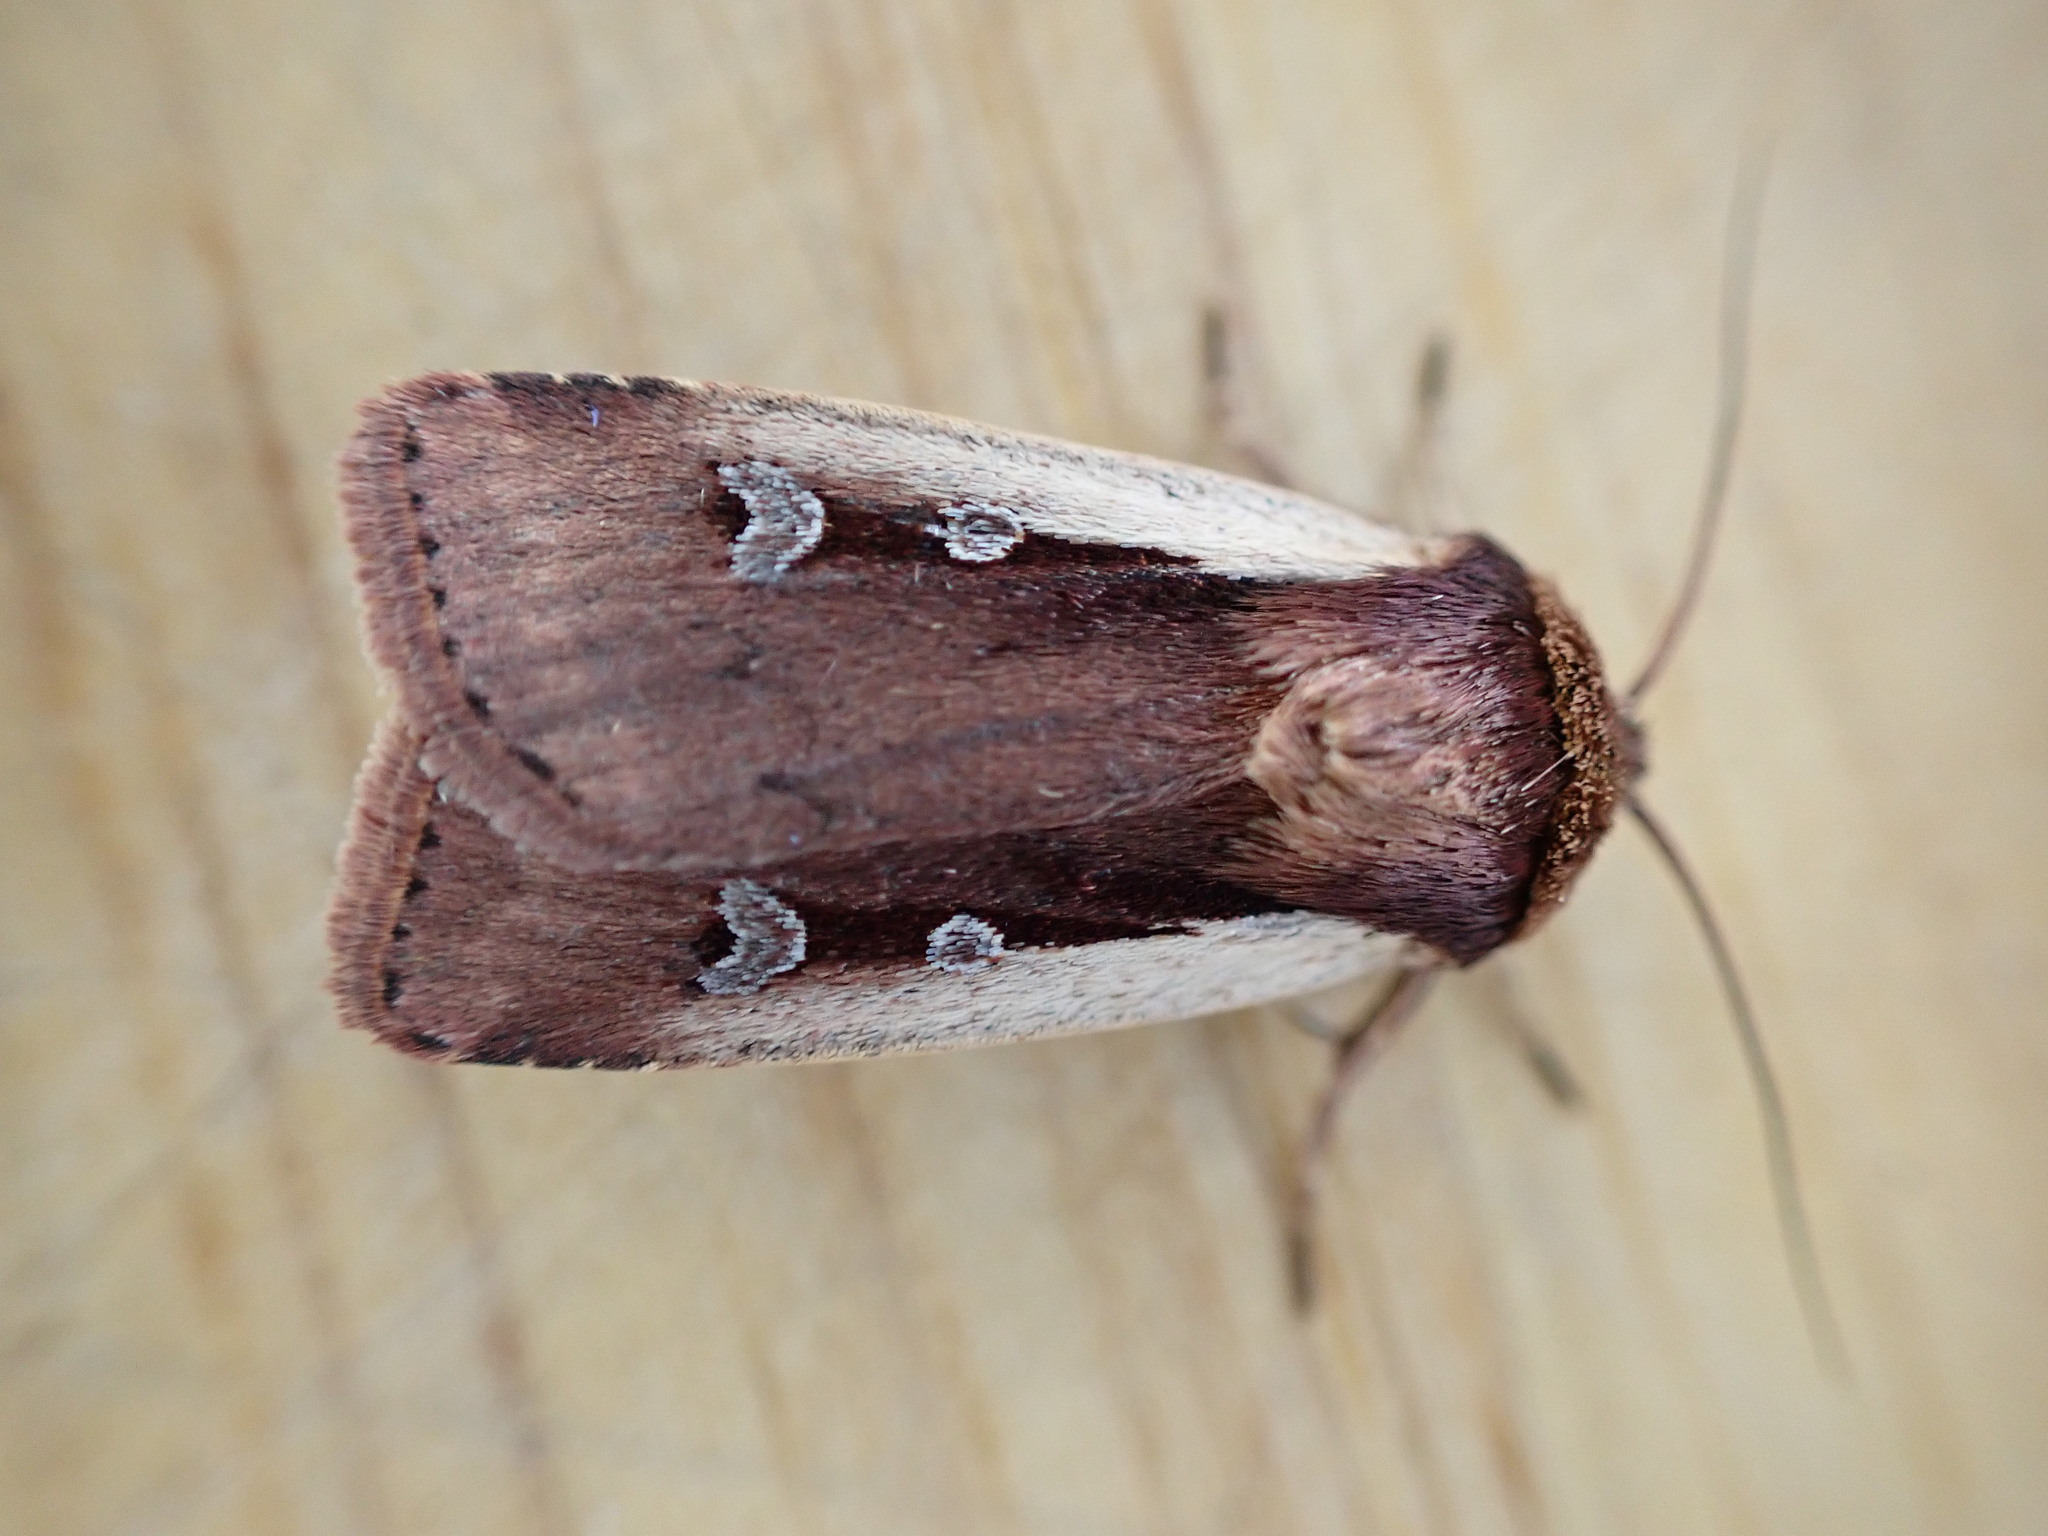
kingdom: Animalia
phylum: Arthropoda
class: Insecta
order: Lepidoptera
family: Noctuidae
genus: Ochropleura
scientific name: Ochropleura plecta
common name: Flame shoulder
